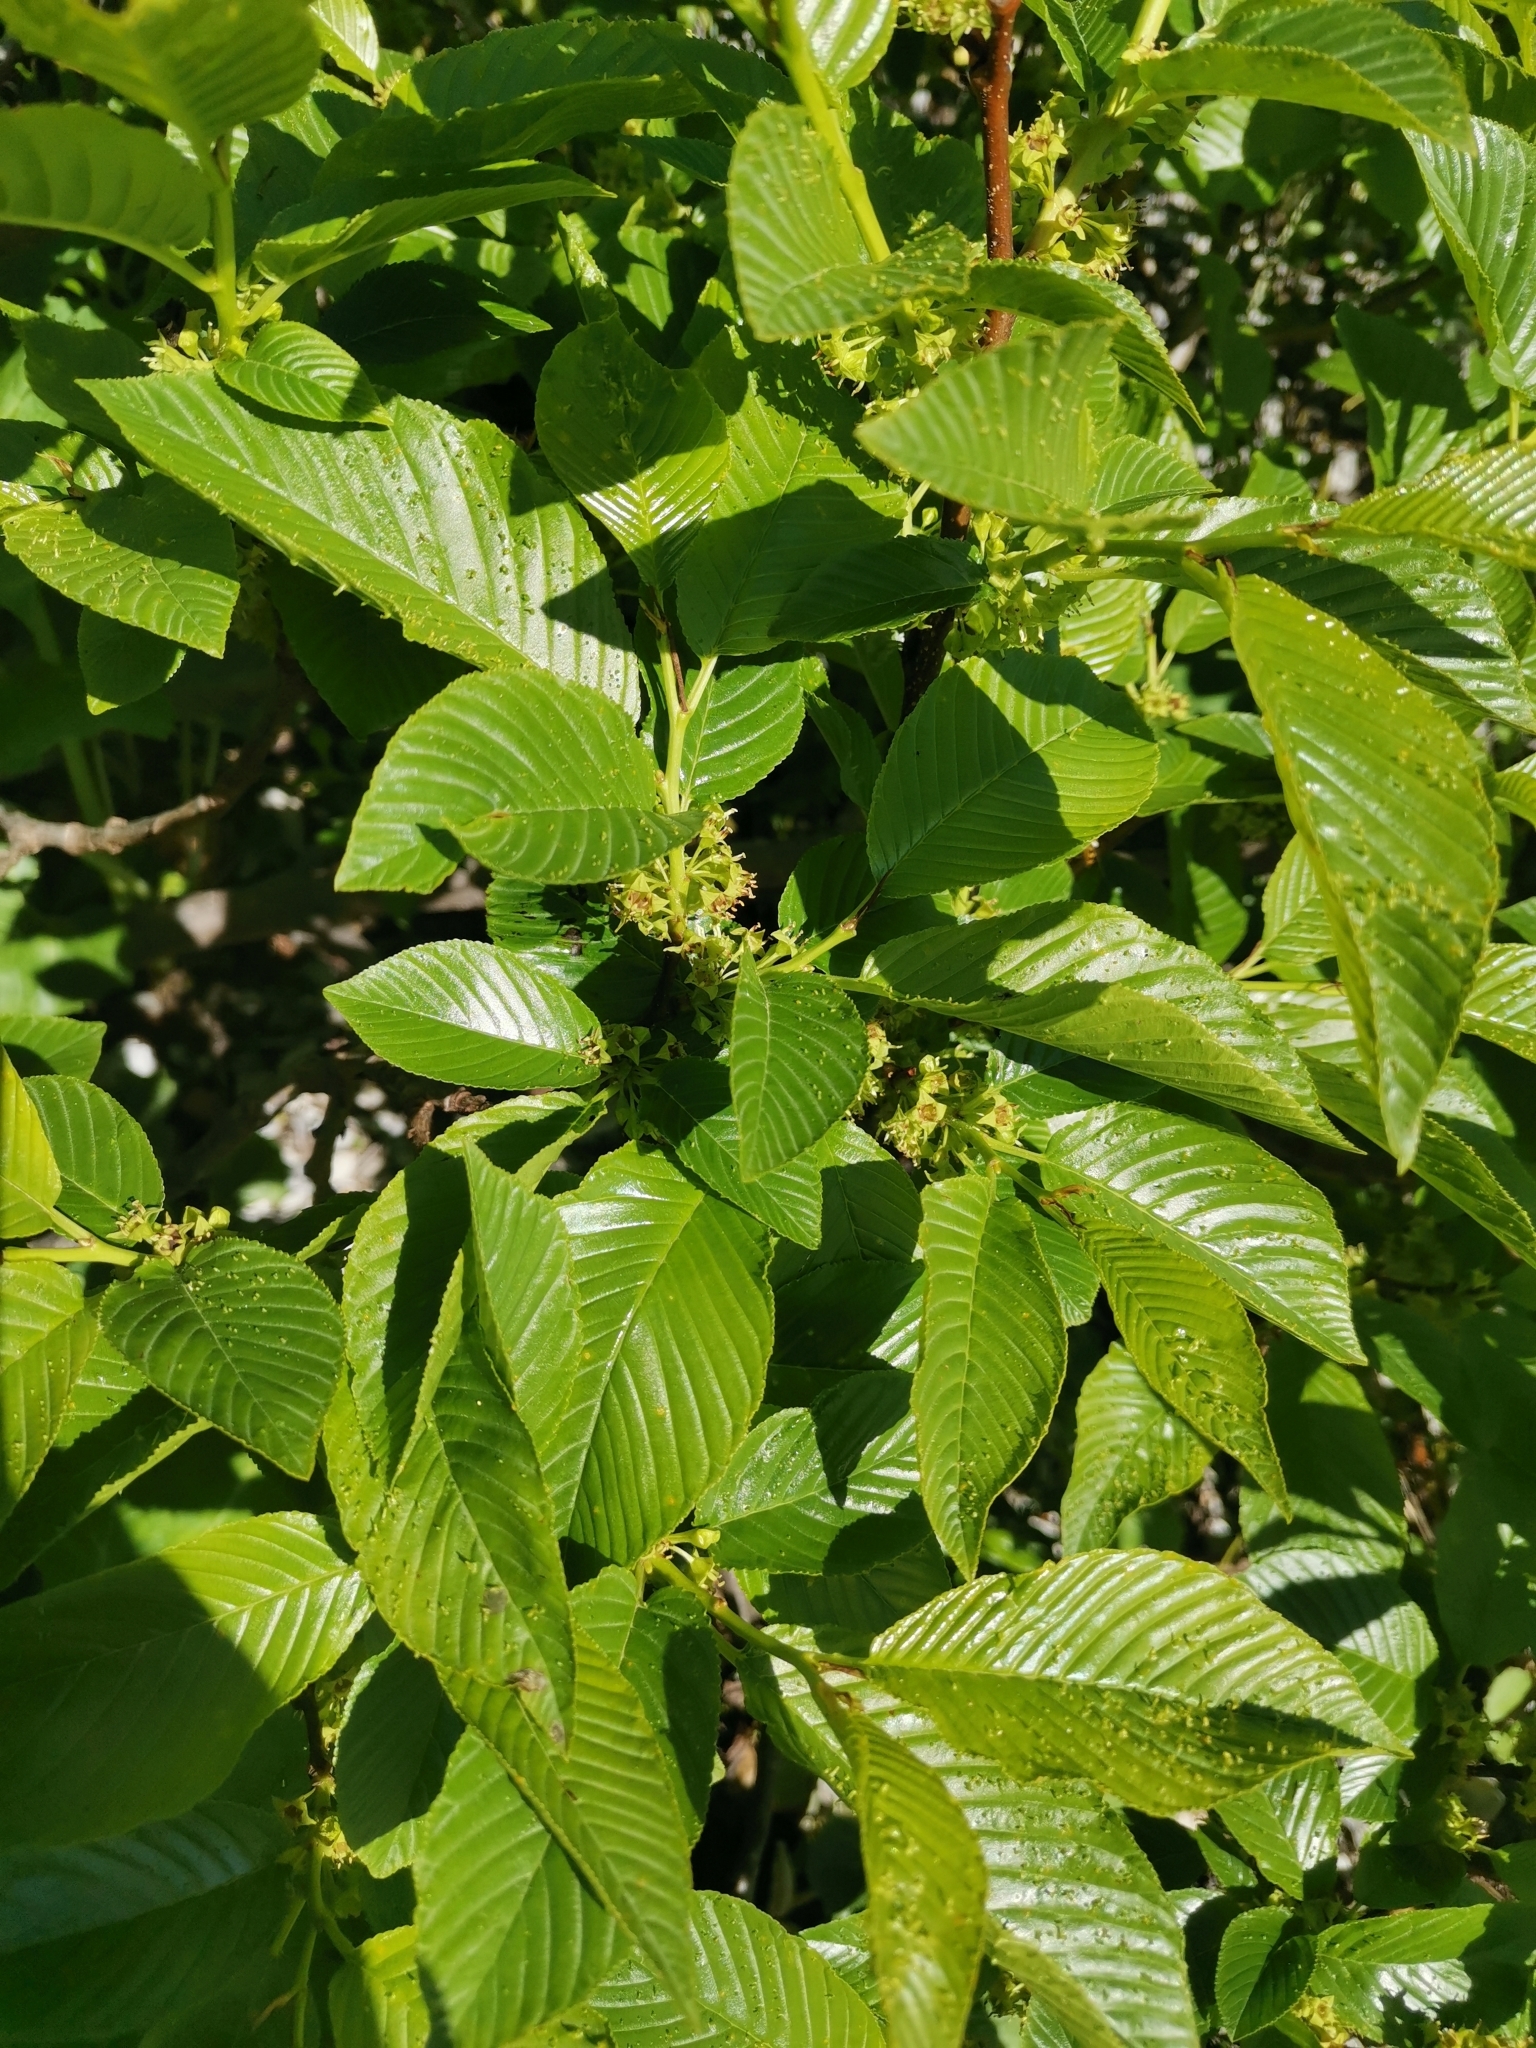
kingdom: Plantae
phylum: Tracheophyta
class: Magnoliopsida
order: Rosales
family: Rhamnaceae
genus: Atadinus
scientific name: Atadinus fallax
